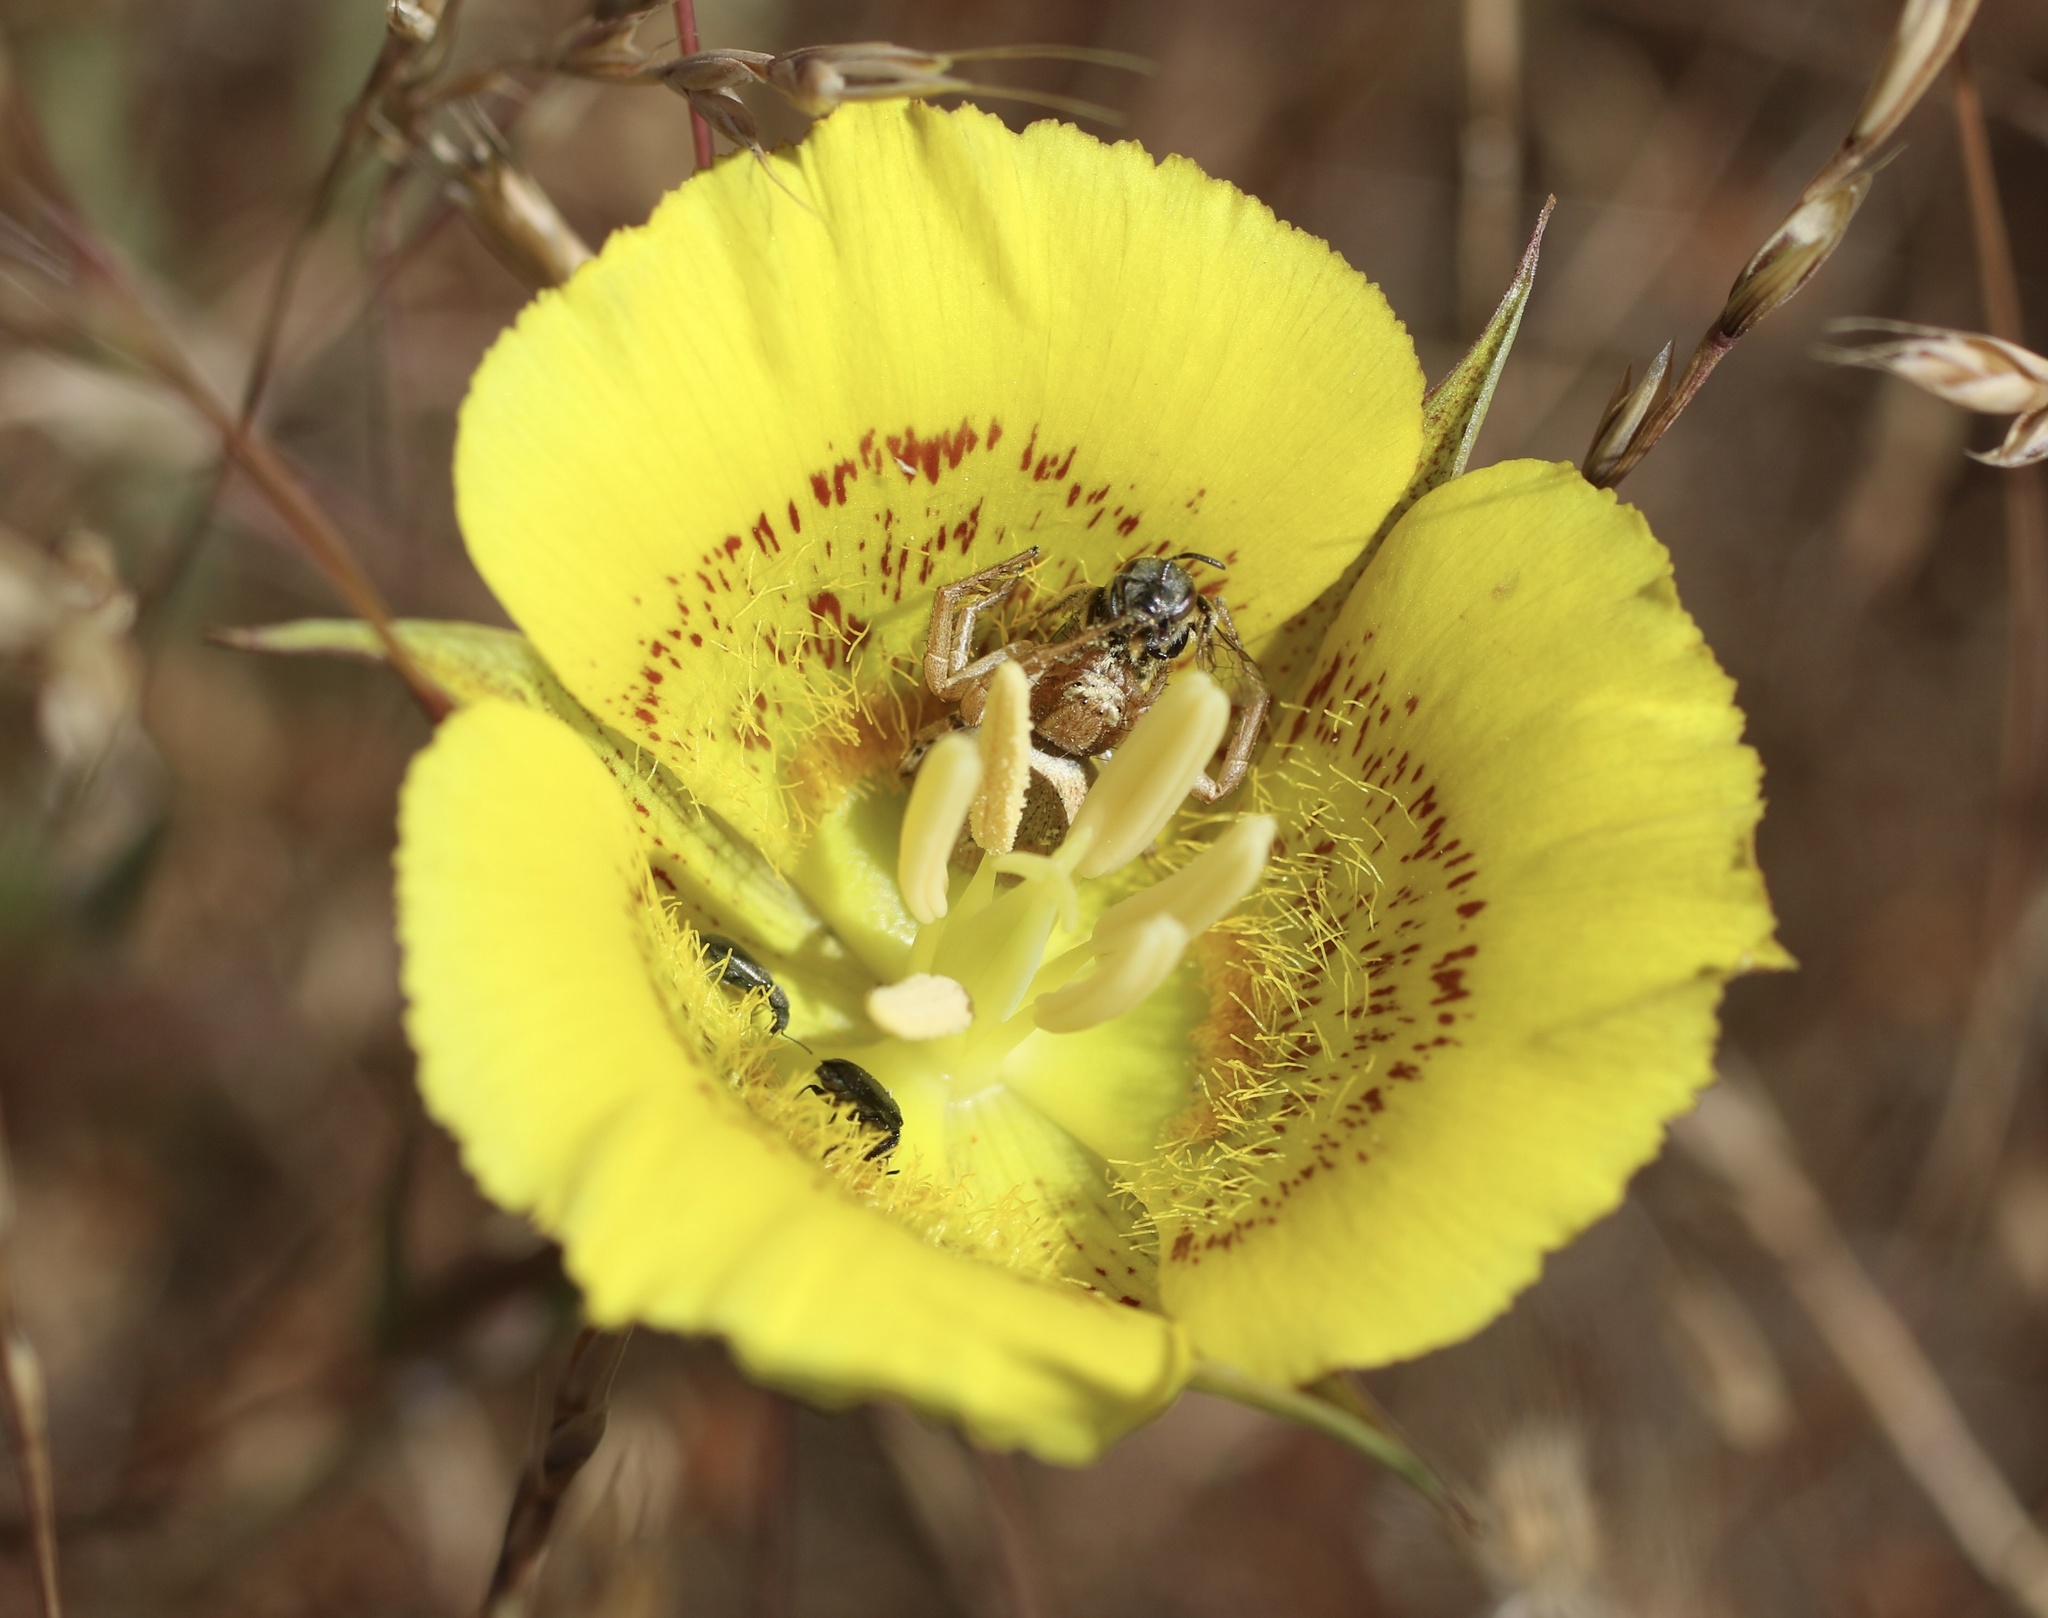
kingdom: Plantae
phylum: Tracheophyta
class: Liliopsida
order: Liliales
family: Liliaceae
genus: Calochortus
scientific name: Calochortus luteus
